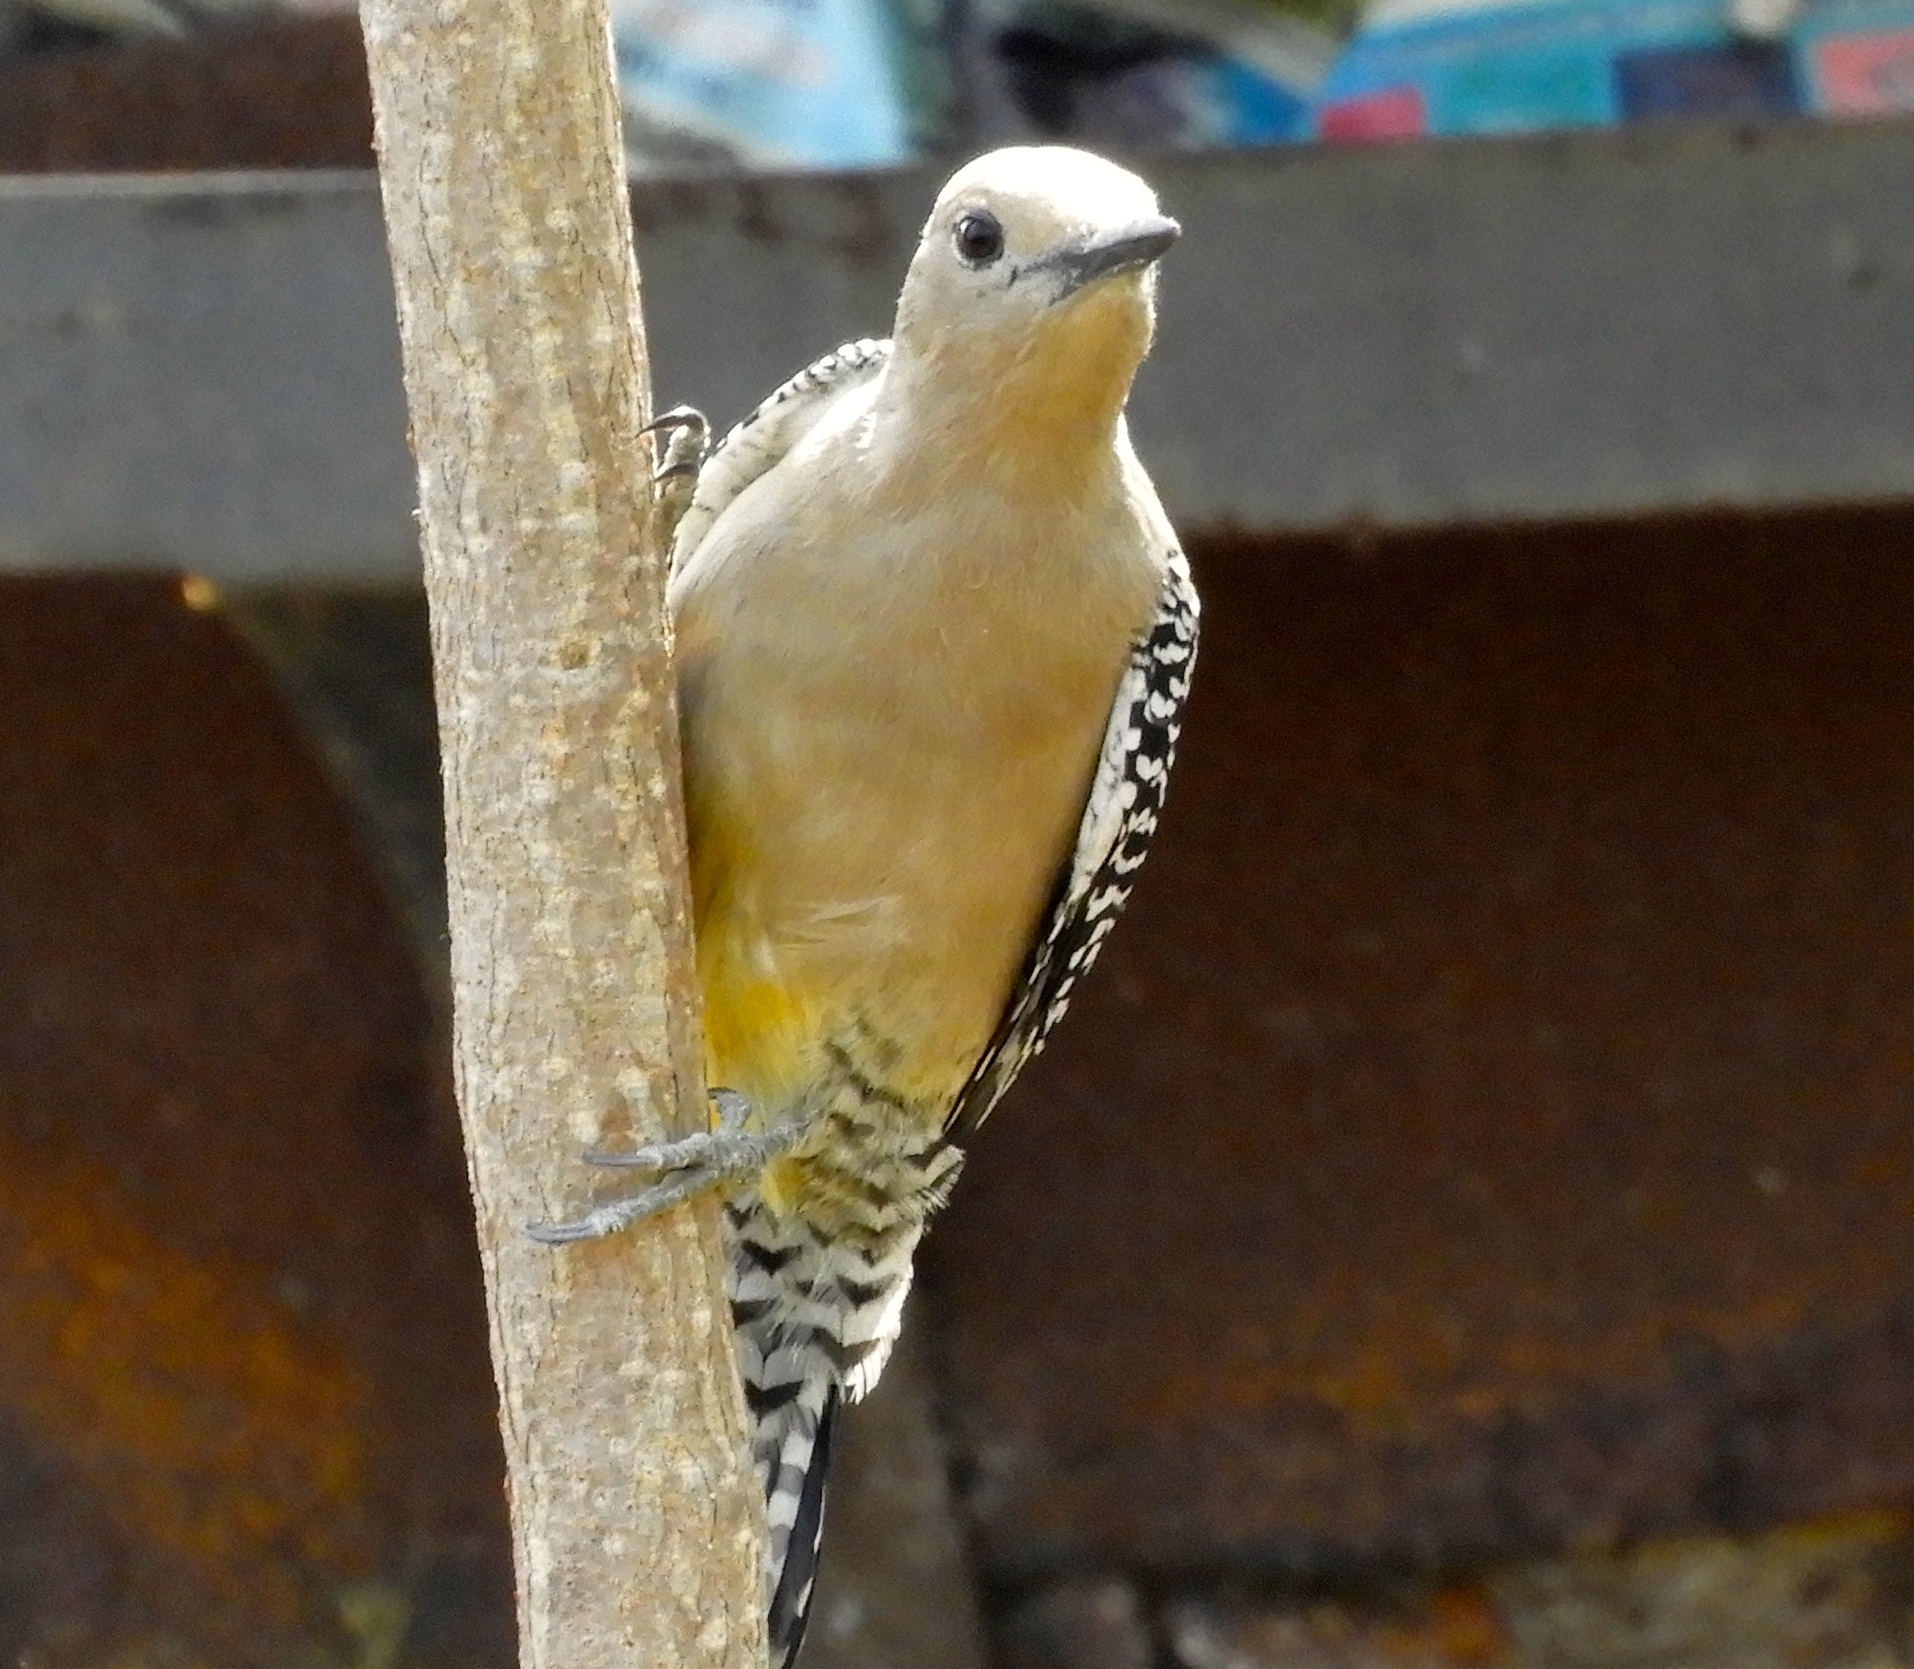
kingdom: Animalia
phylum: Chordata
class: Aves
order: Piciformes
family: Picidae
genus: Melanerpes
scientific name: Melanerpes uropygialis
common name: Gila woodpecker
